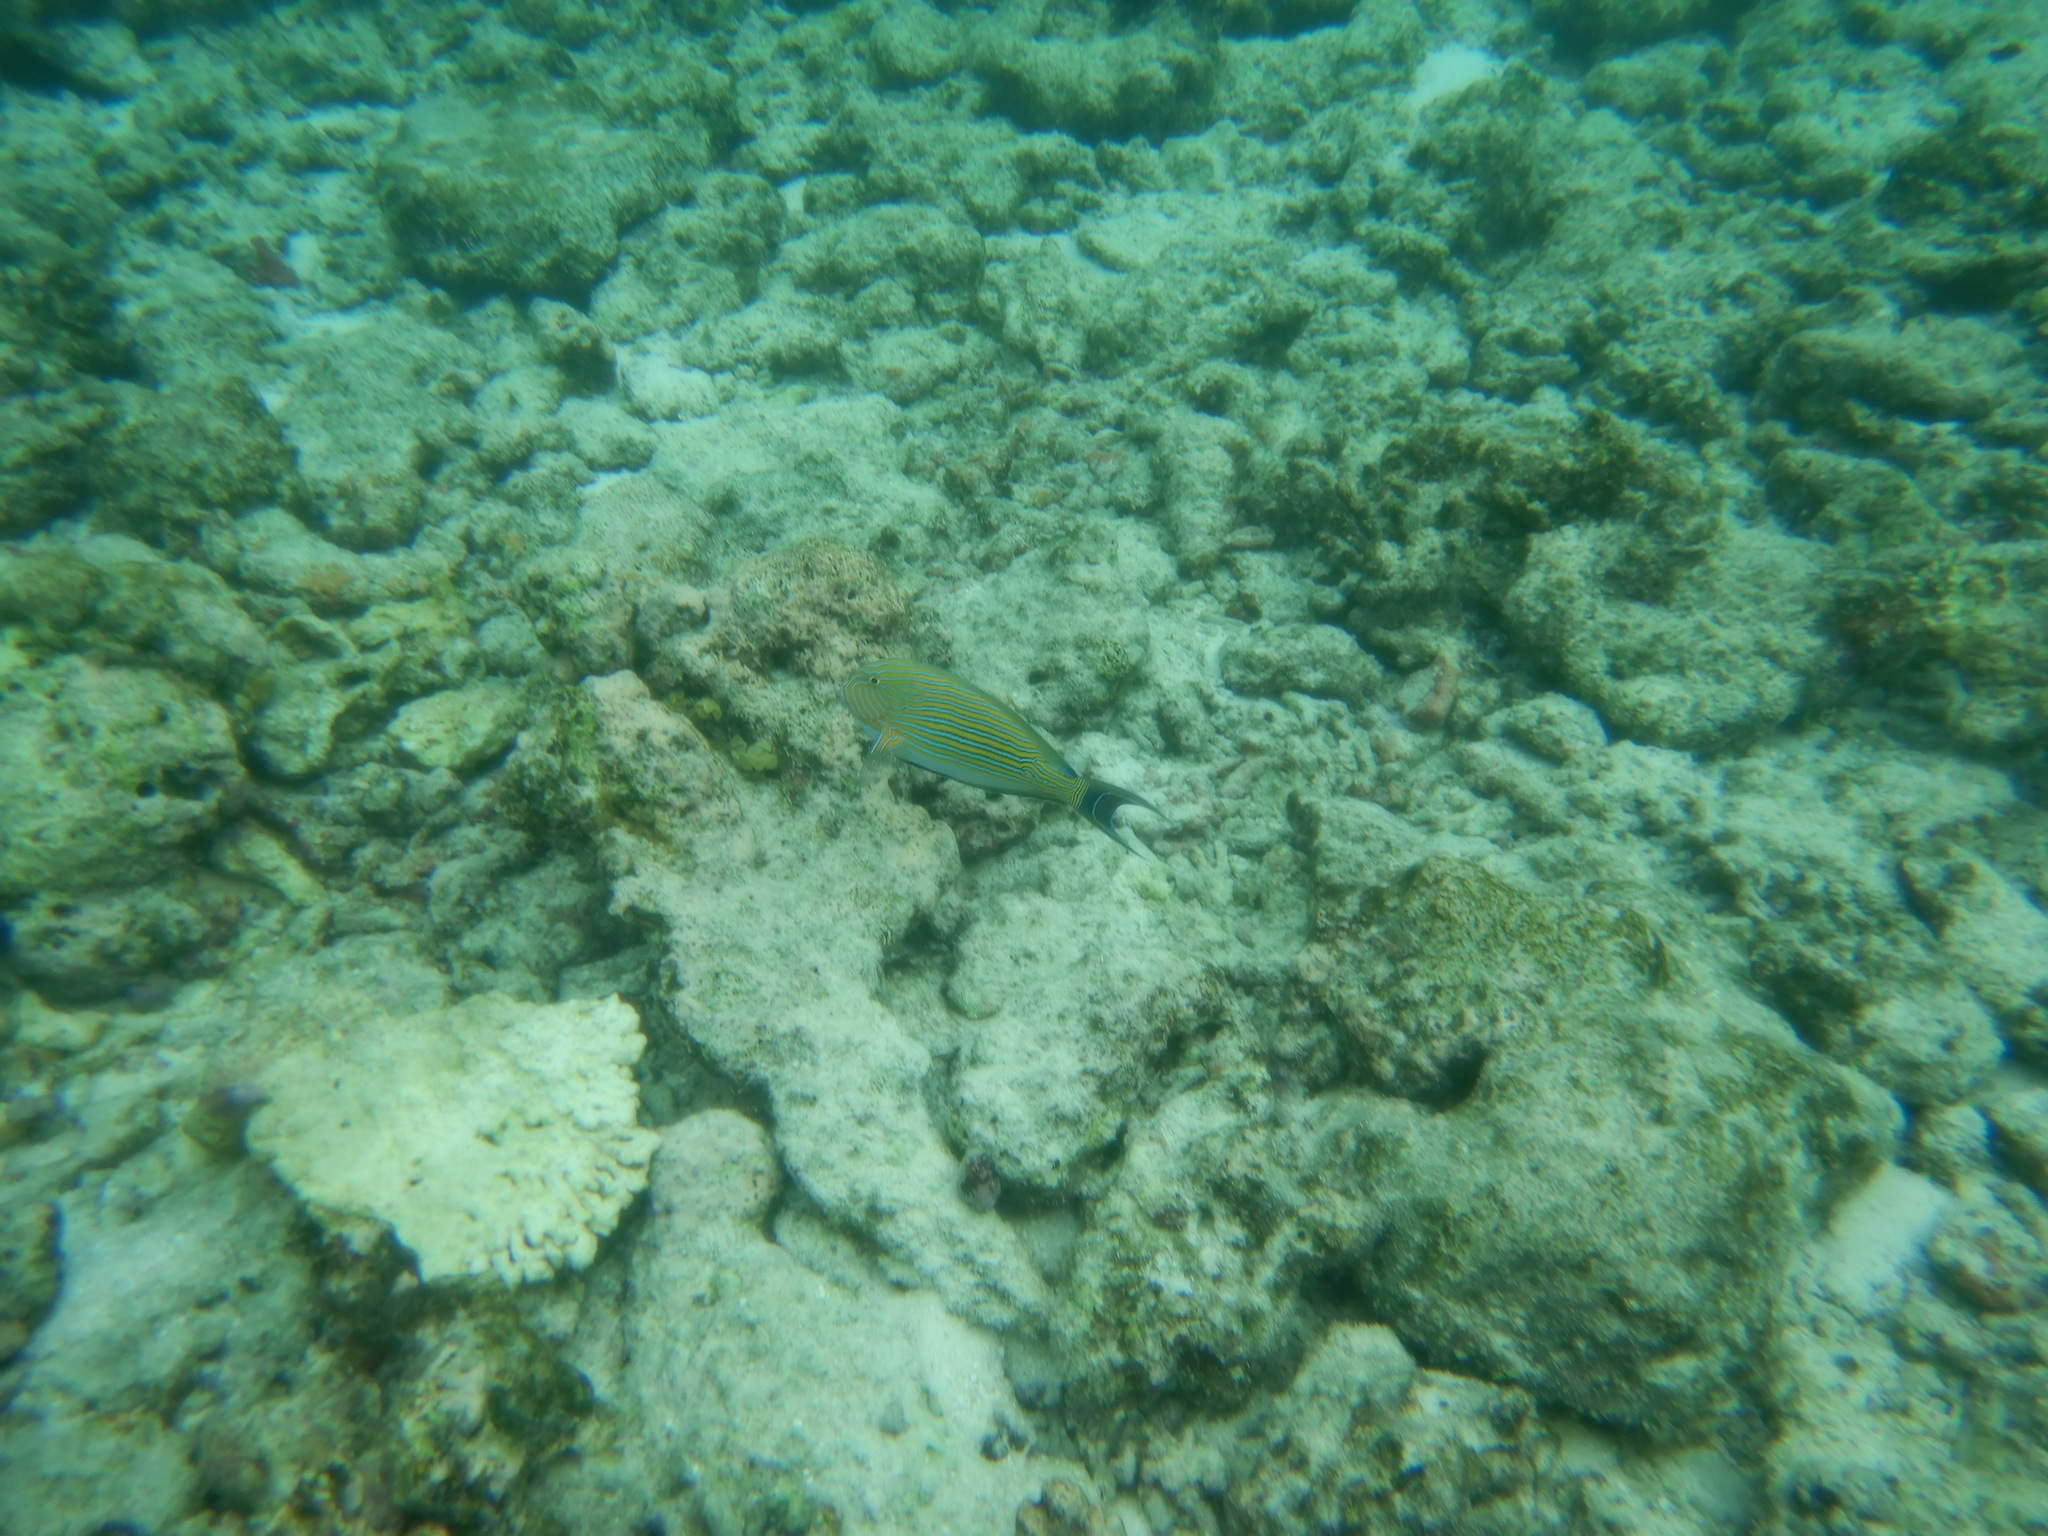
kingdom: Animalia
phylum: Chordata
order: Perciformes
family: Acanthuridae
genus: Acanthurus
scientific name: Acanthurus lineatus
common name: Striped surgeonfish
